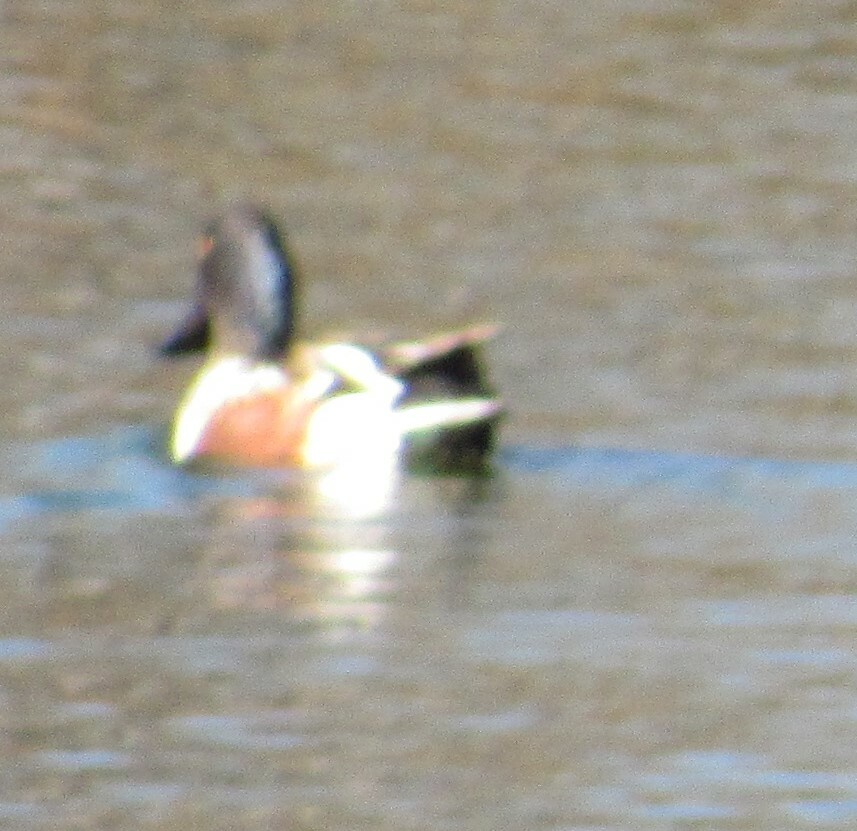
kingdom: Animalia
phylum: Chordata
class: Aves
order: Anseriformes
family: Anatidae
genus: Spatula
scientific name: Spatula clypeata
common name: Northern shoveler
